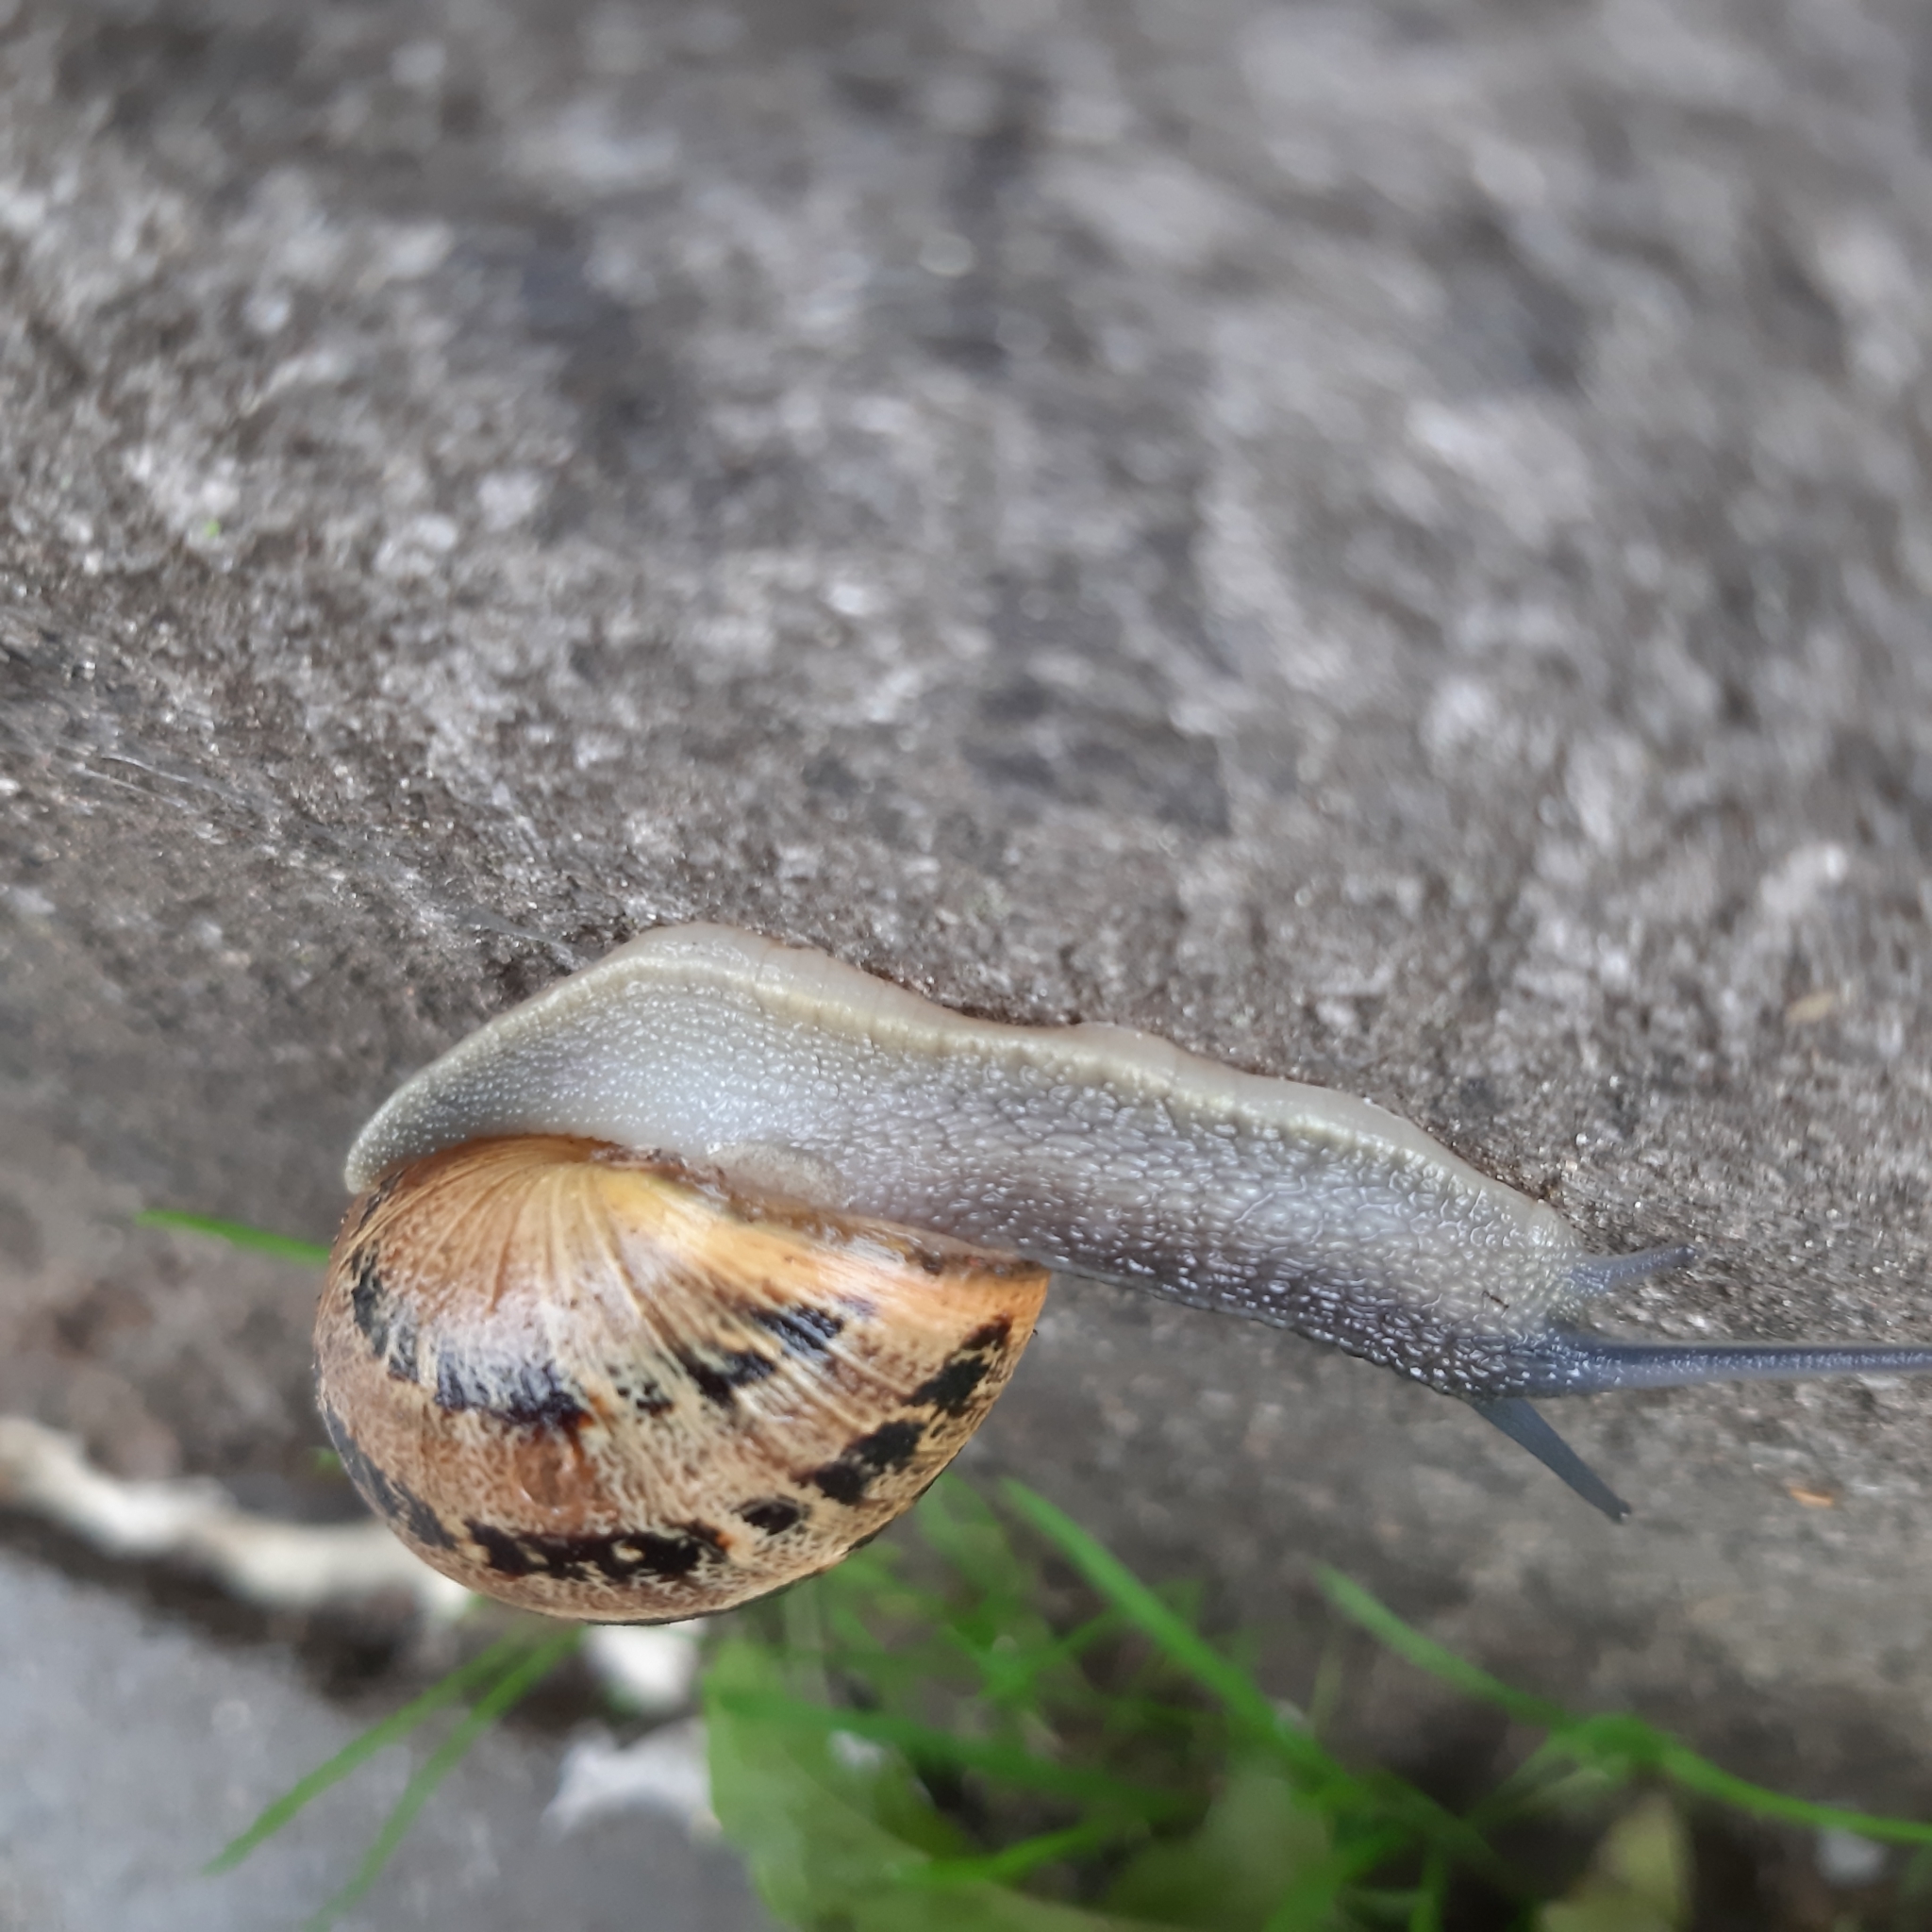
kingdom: Animalia
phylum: Mollusca
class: Gastropoda
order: Stylommatophora
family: Helicidae
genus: Cornu
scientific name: Cornu aspersum
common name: Brown garden snail
